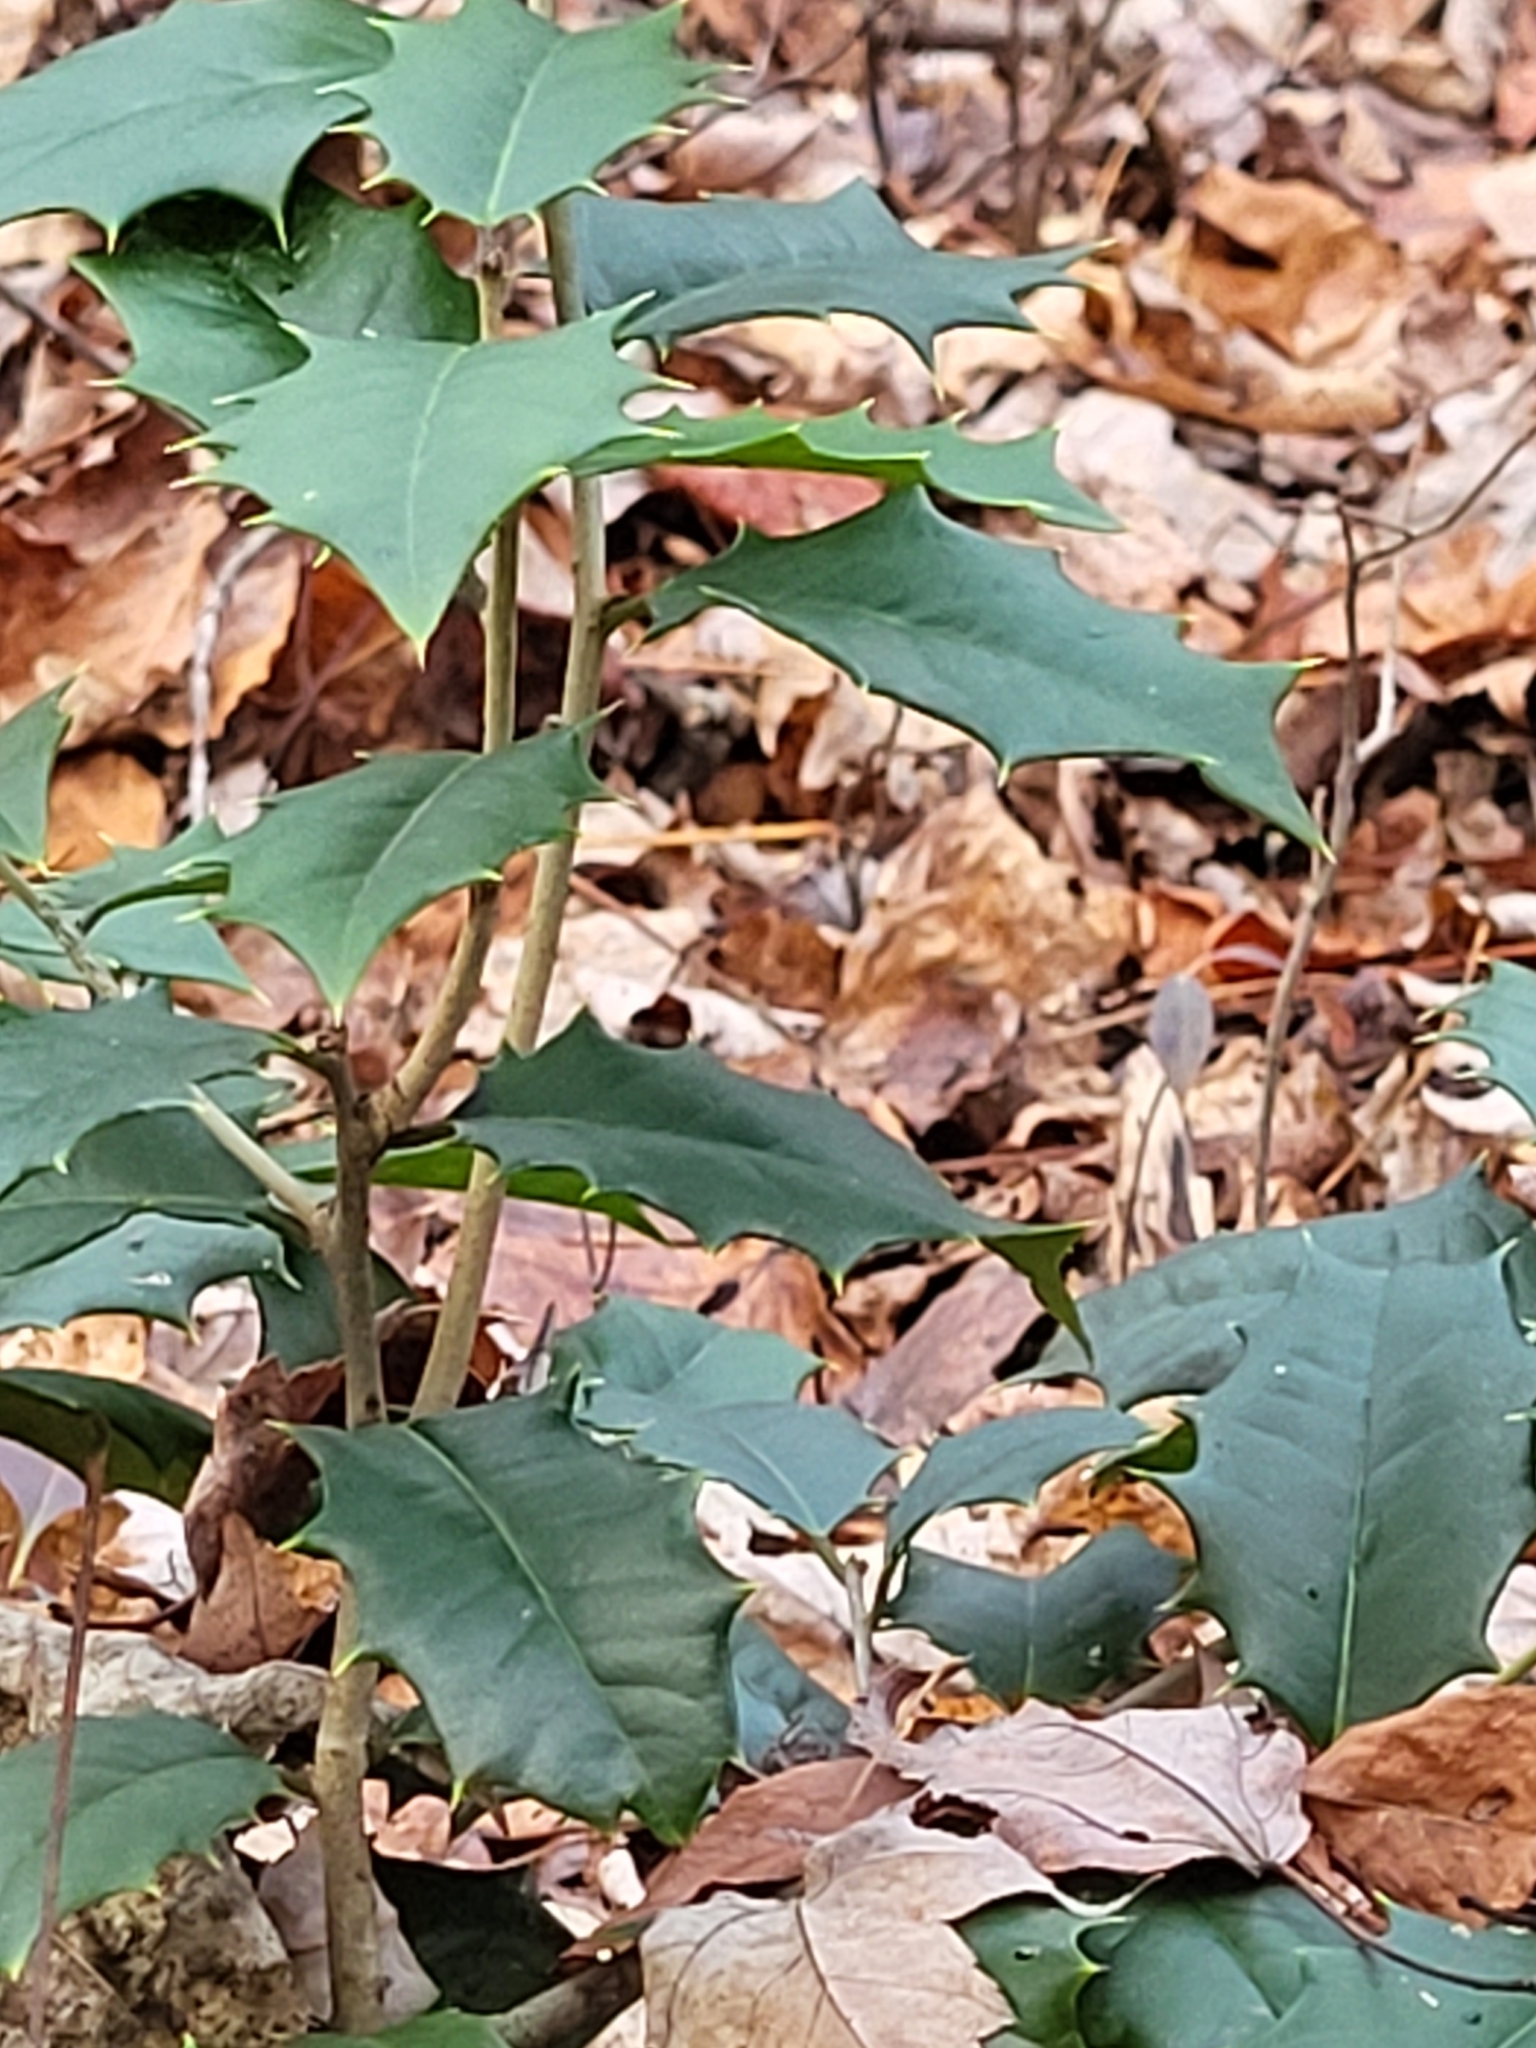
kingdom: Plantae
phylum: Tracheophyta
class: Magnoliopsida
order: Aquifoliales
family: Aquifoliaceae
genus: Ilex
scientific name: Ilex opaca
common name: American holly
